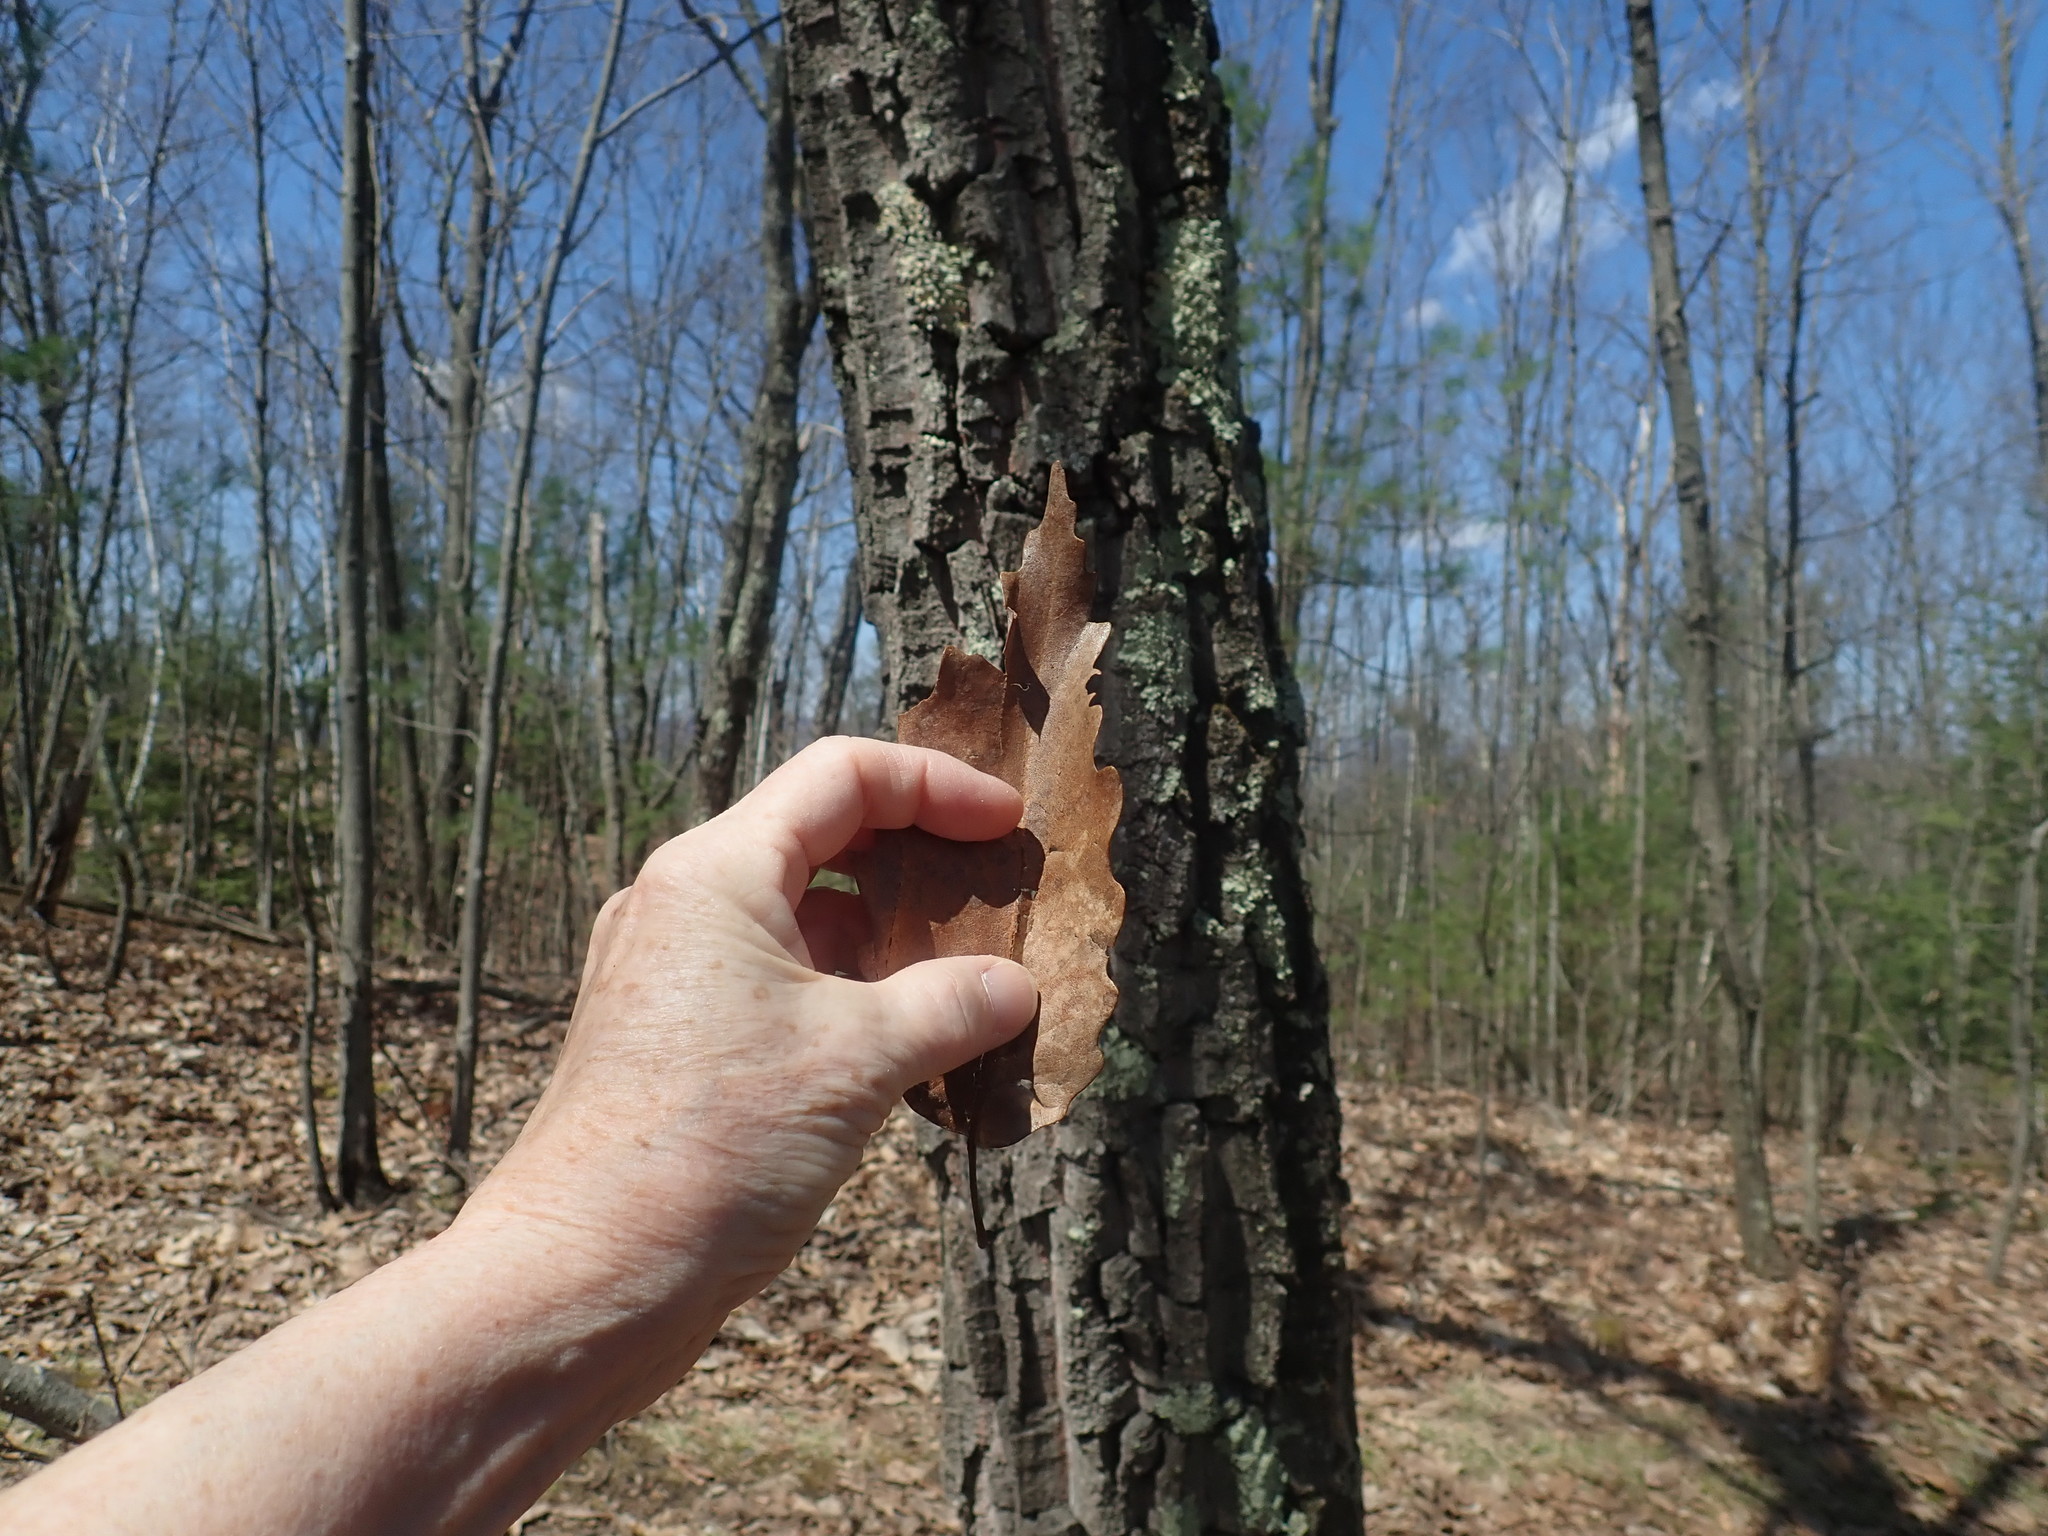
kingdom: Plantae
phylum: Tracheophyta
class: Magnoliopsida
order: Fagales
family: Fagaceae
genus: Quercus
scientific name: Quercus montana
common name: Chestnut oak
